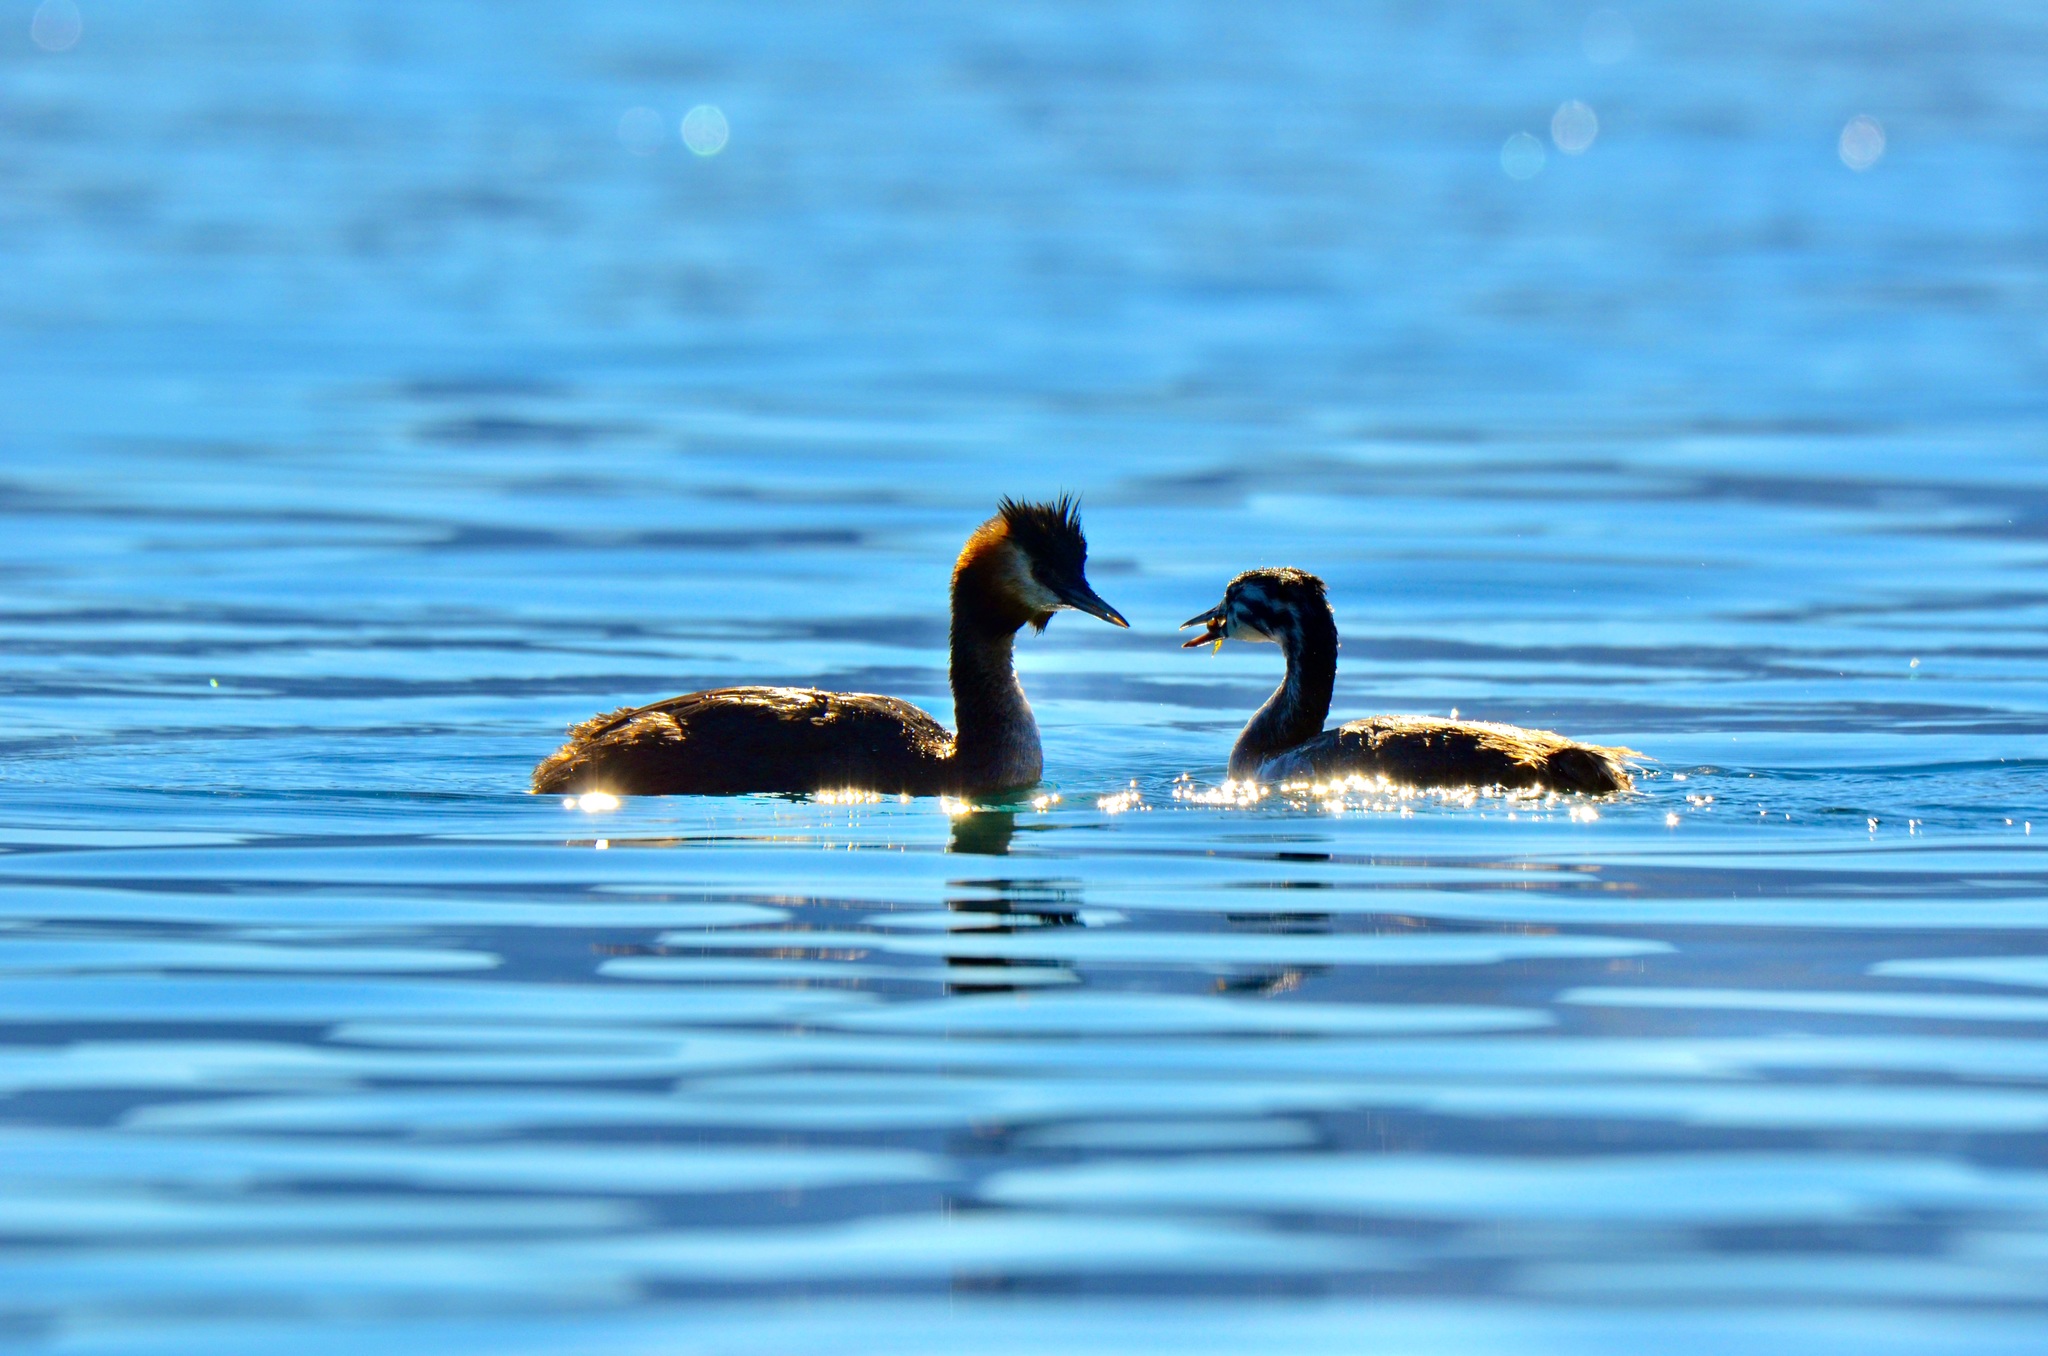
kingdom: Animalia
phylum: Chordata
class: Aves
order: Podicipediformes
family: Podicipedidae
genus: Podiceps
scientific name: Podiceps cristatus
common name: Great crested grebe
